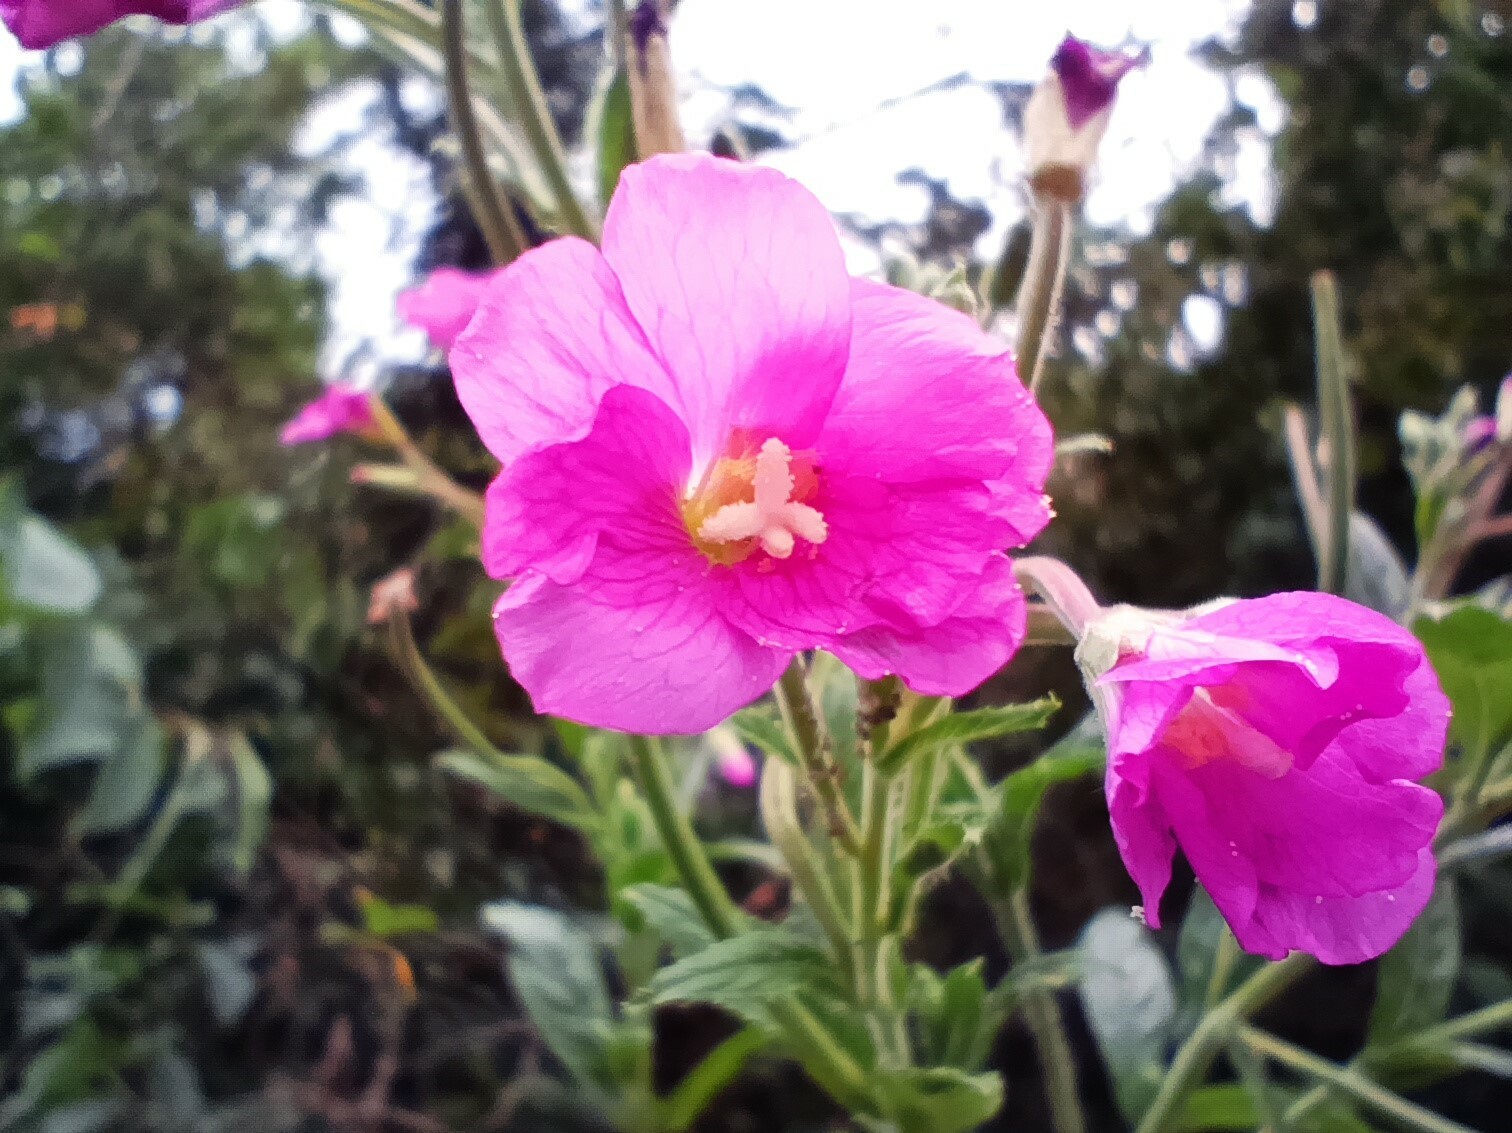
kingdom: Plantae
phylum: Tracheophyta
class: Magnoliopsida
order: Myrtales
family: Onagraceae
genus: Epilobium
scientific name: Epilobium hirsutum
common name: Great willowherb
